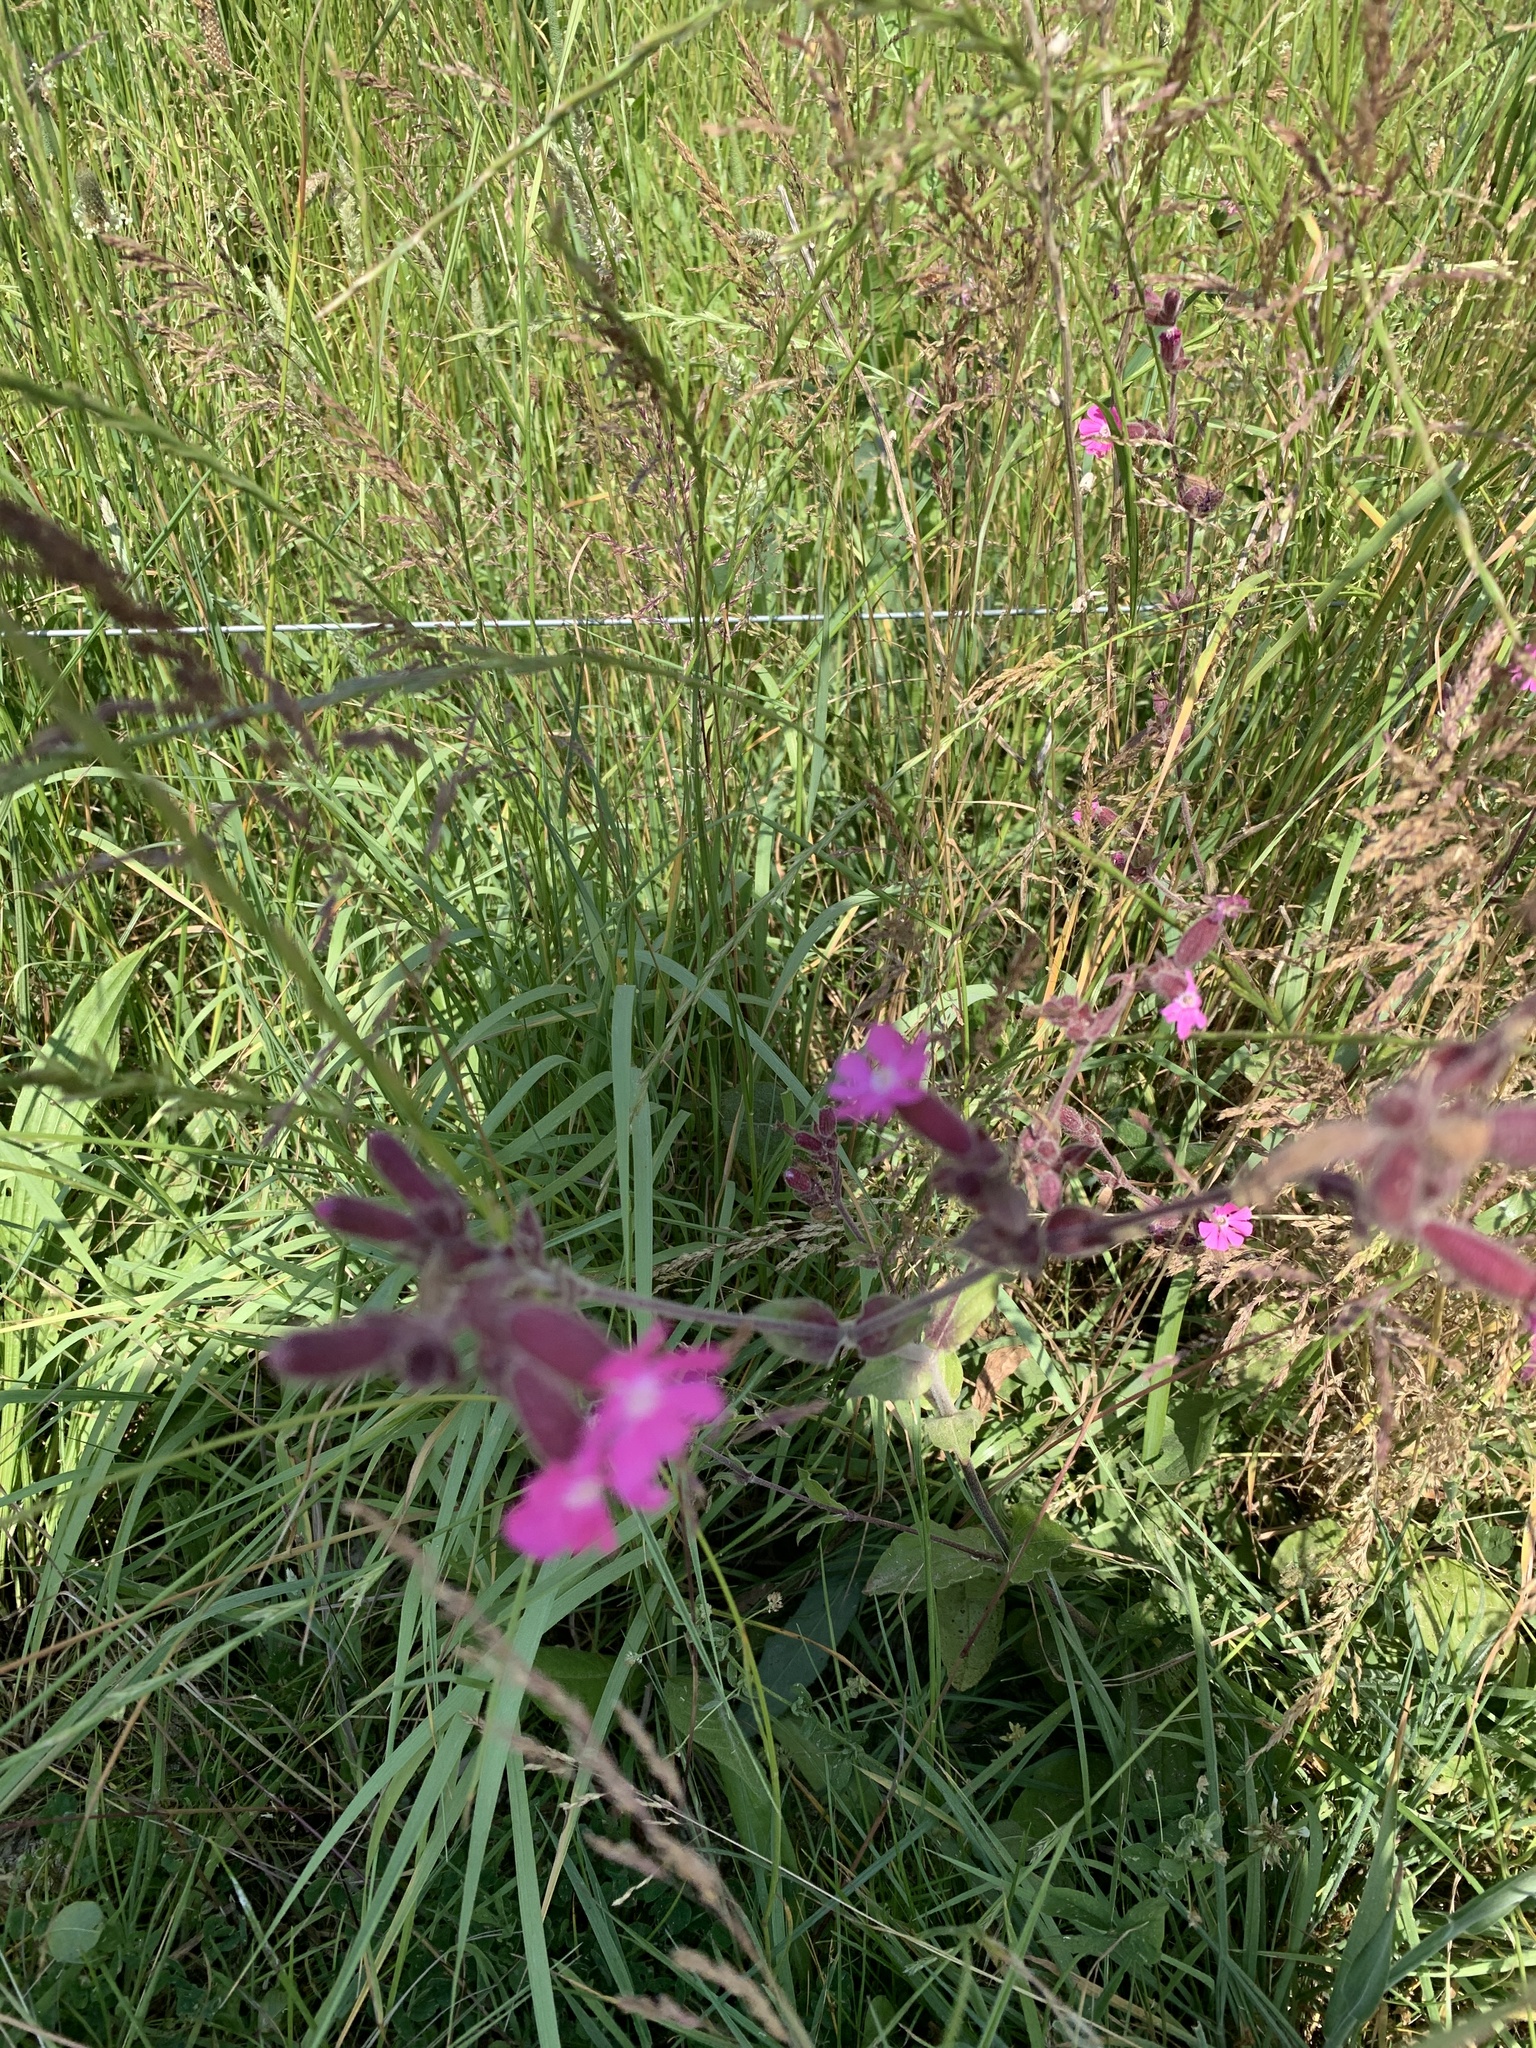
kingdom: Plantae
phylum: Tracheophyta
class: Magnoliopsida
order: Caryophyllales
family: Caryophyllaceae
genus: Silene
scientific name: Silene dioica
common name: Red campion
